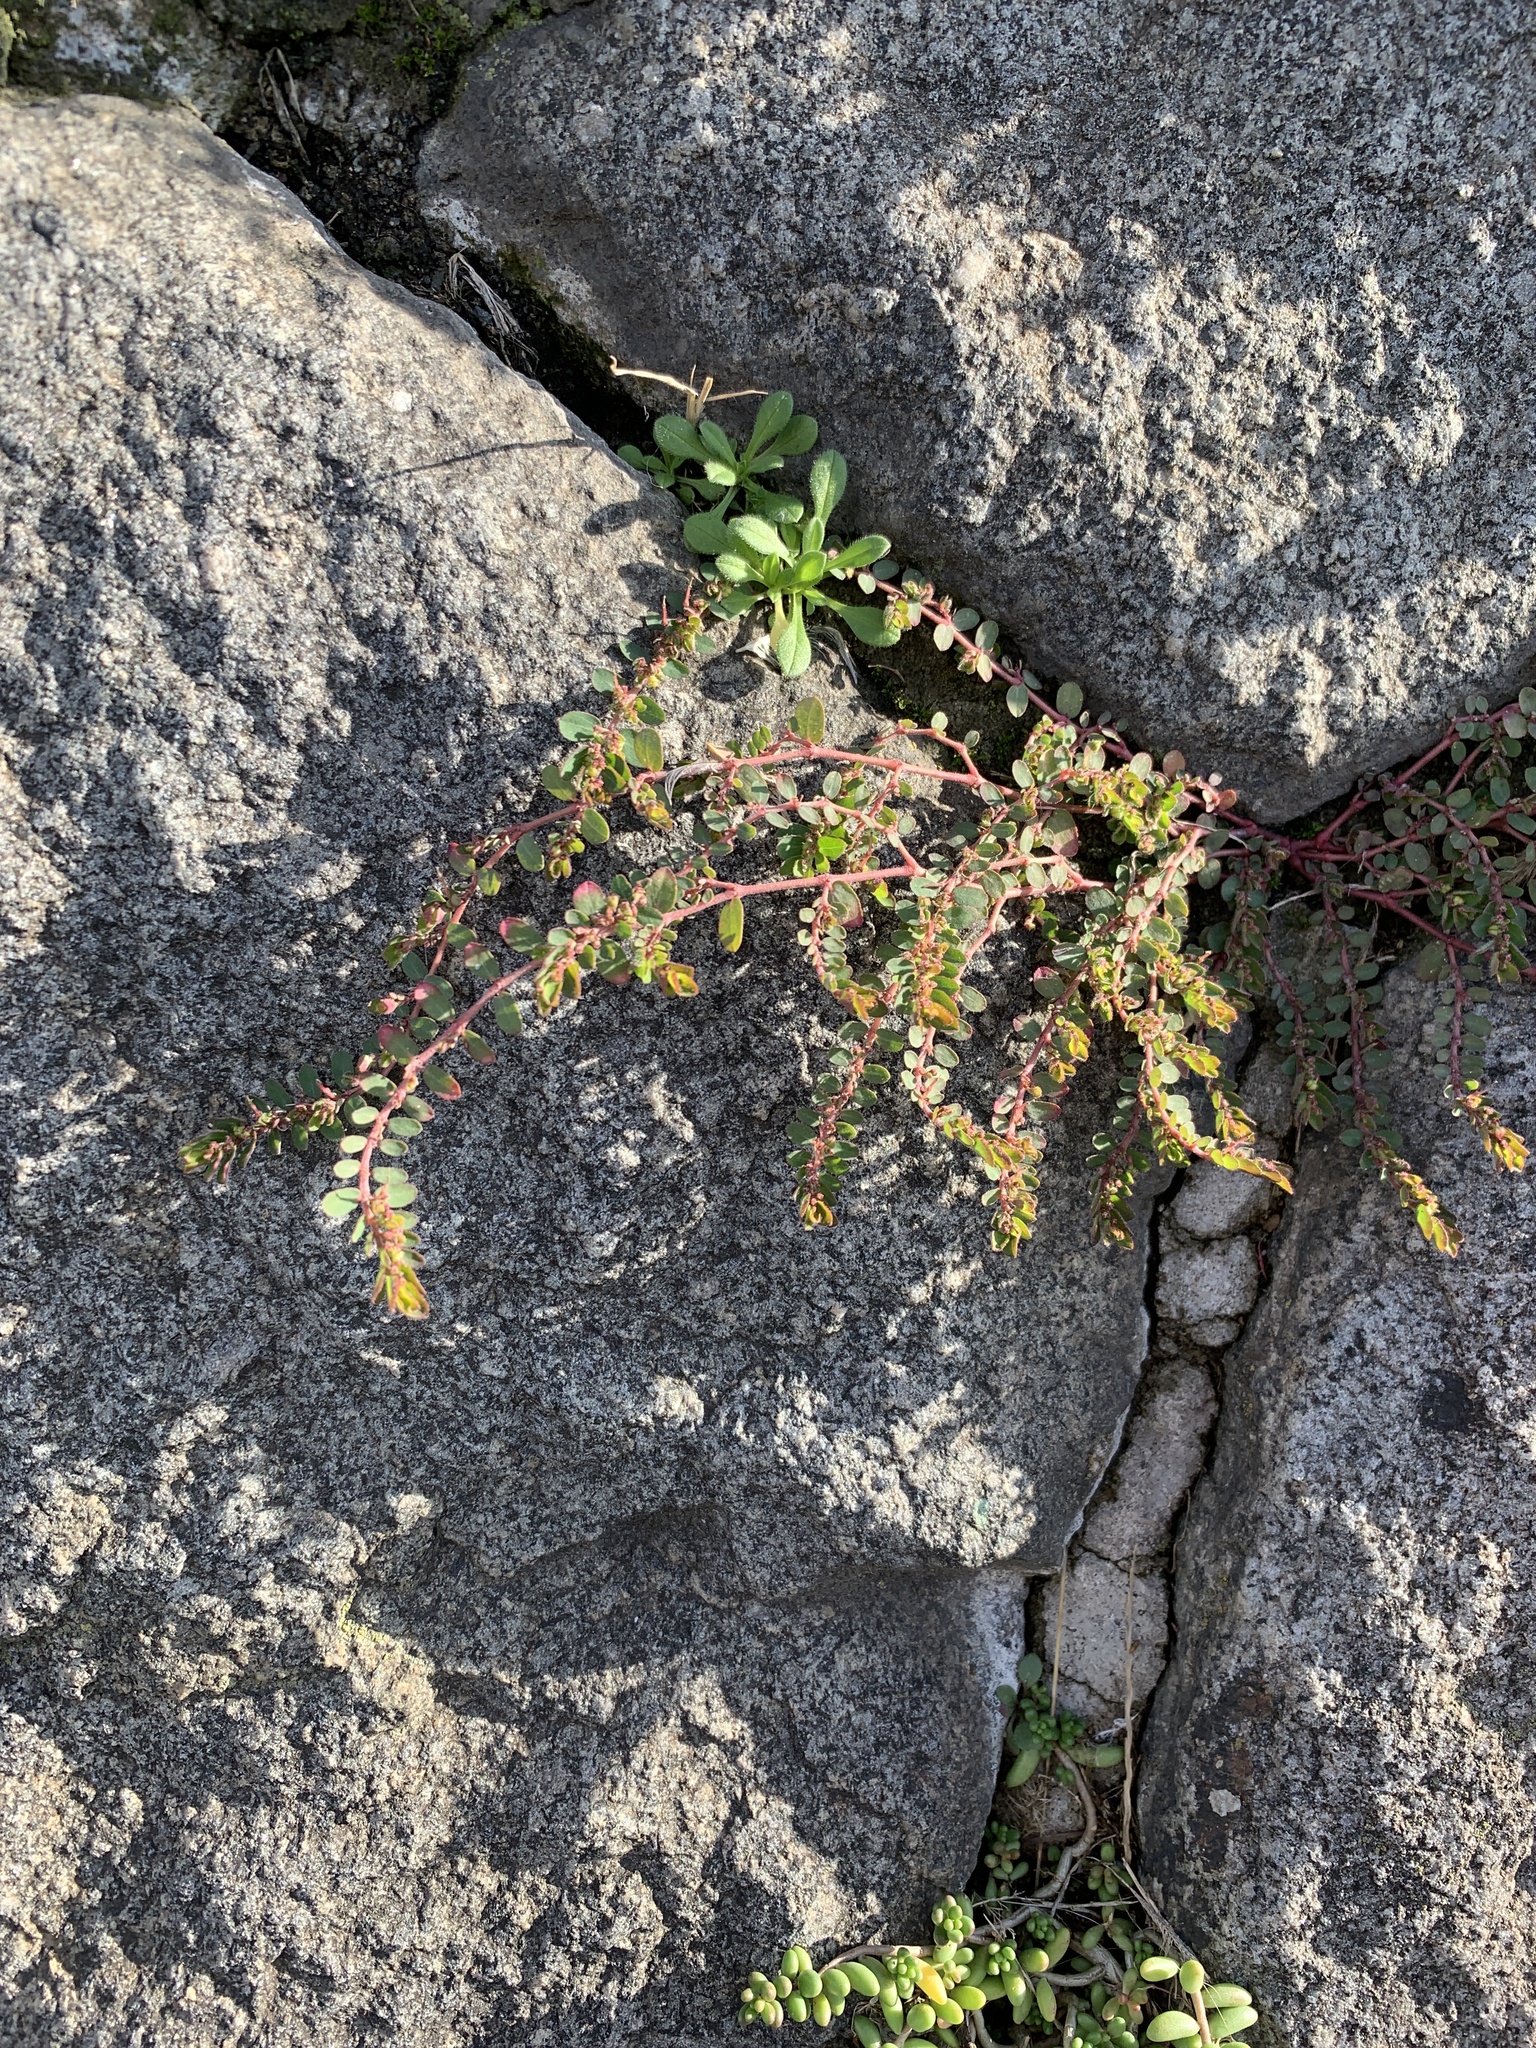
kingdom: Plantae
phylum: Tracheophyta
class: Magnoliopsida
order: Malpighiales
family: Euphorbiaceae
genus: Euphorbia
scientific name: Euphorbia prostrata
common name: Prostrate sandmat
